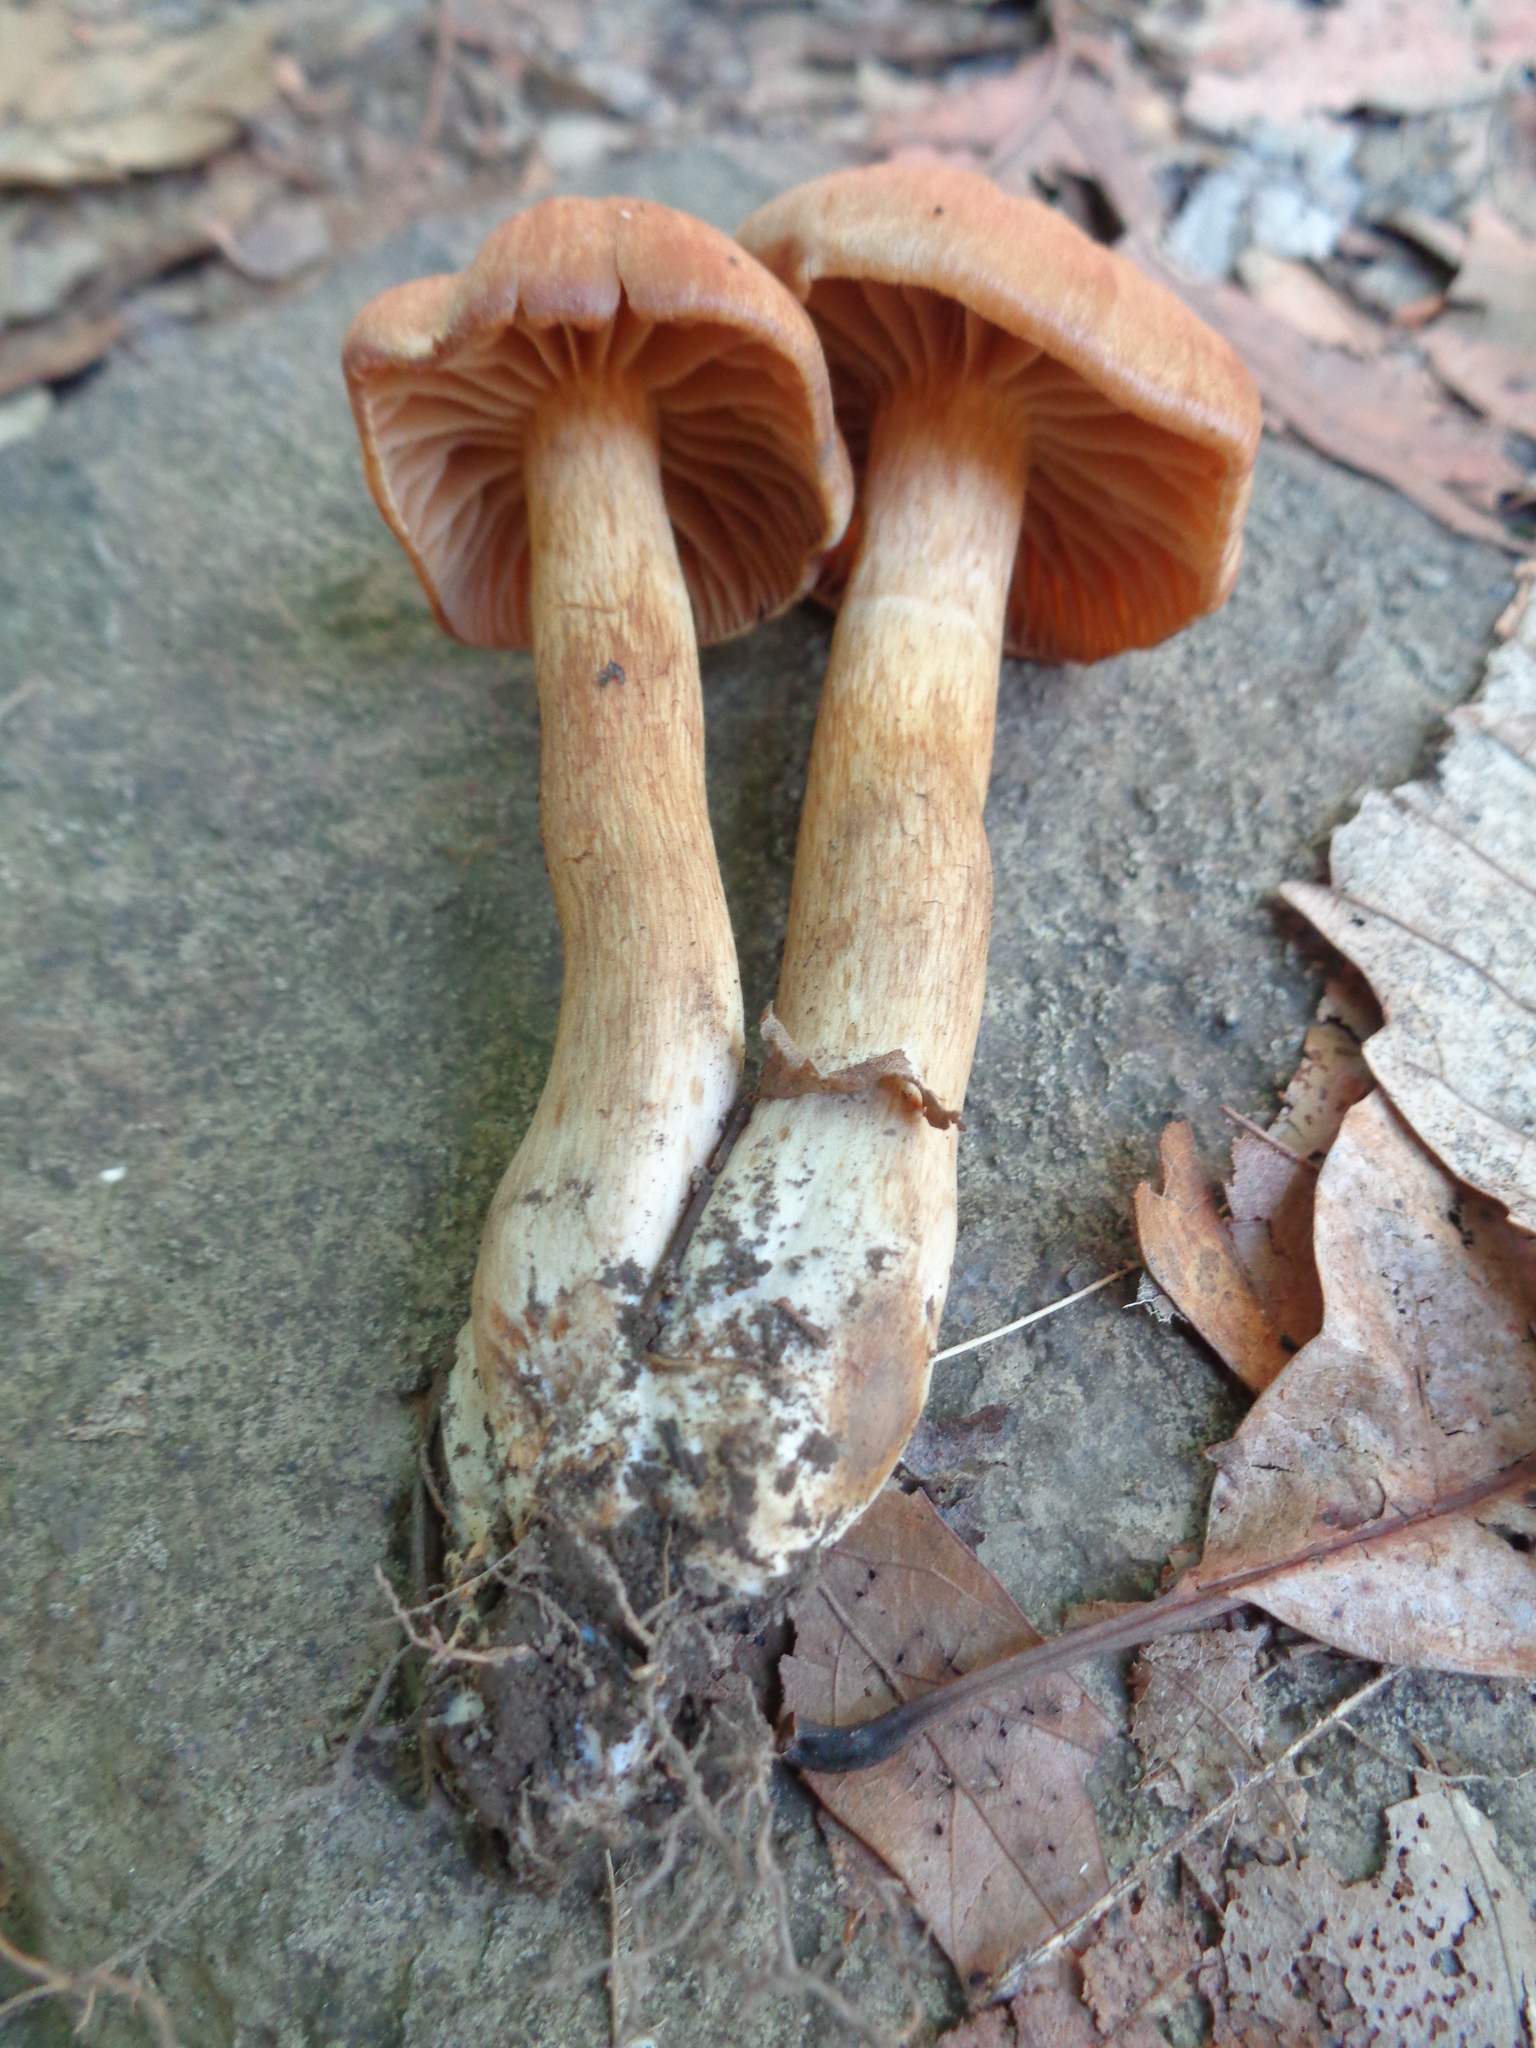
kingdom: Fungi
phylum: Basidiomycota
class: Agaricomycetes
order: Agaricales
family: Cortinariaceae
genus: Cortinarius
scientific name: Cortinarius torvus
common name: Stocking webcap
